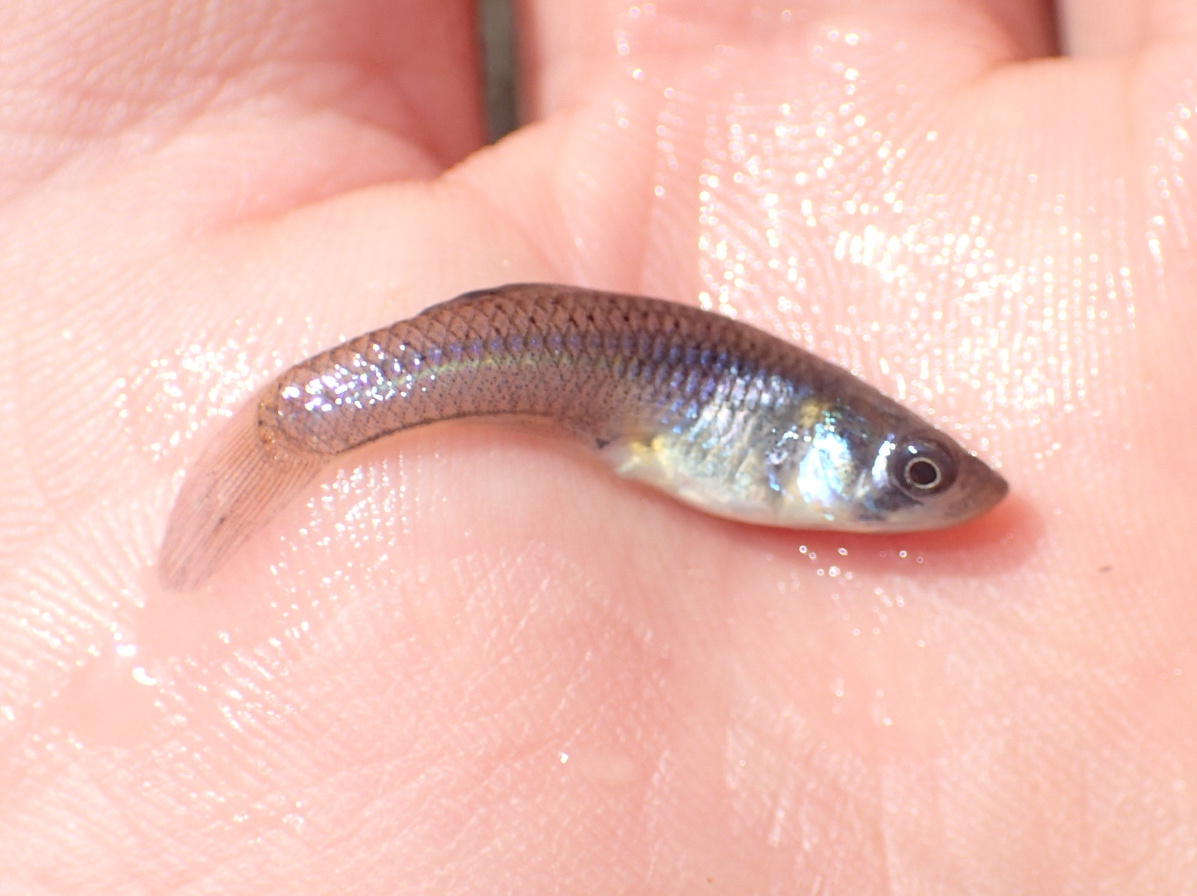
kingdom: Animalia
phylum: Chordata
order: Cyprinodontiformes
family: Poeciliidae
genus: Gambusia
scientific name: Gambusia affinis
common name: Mosquitofish
